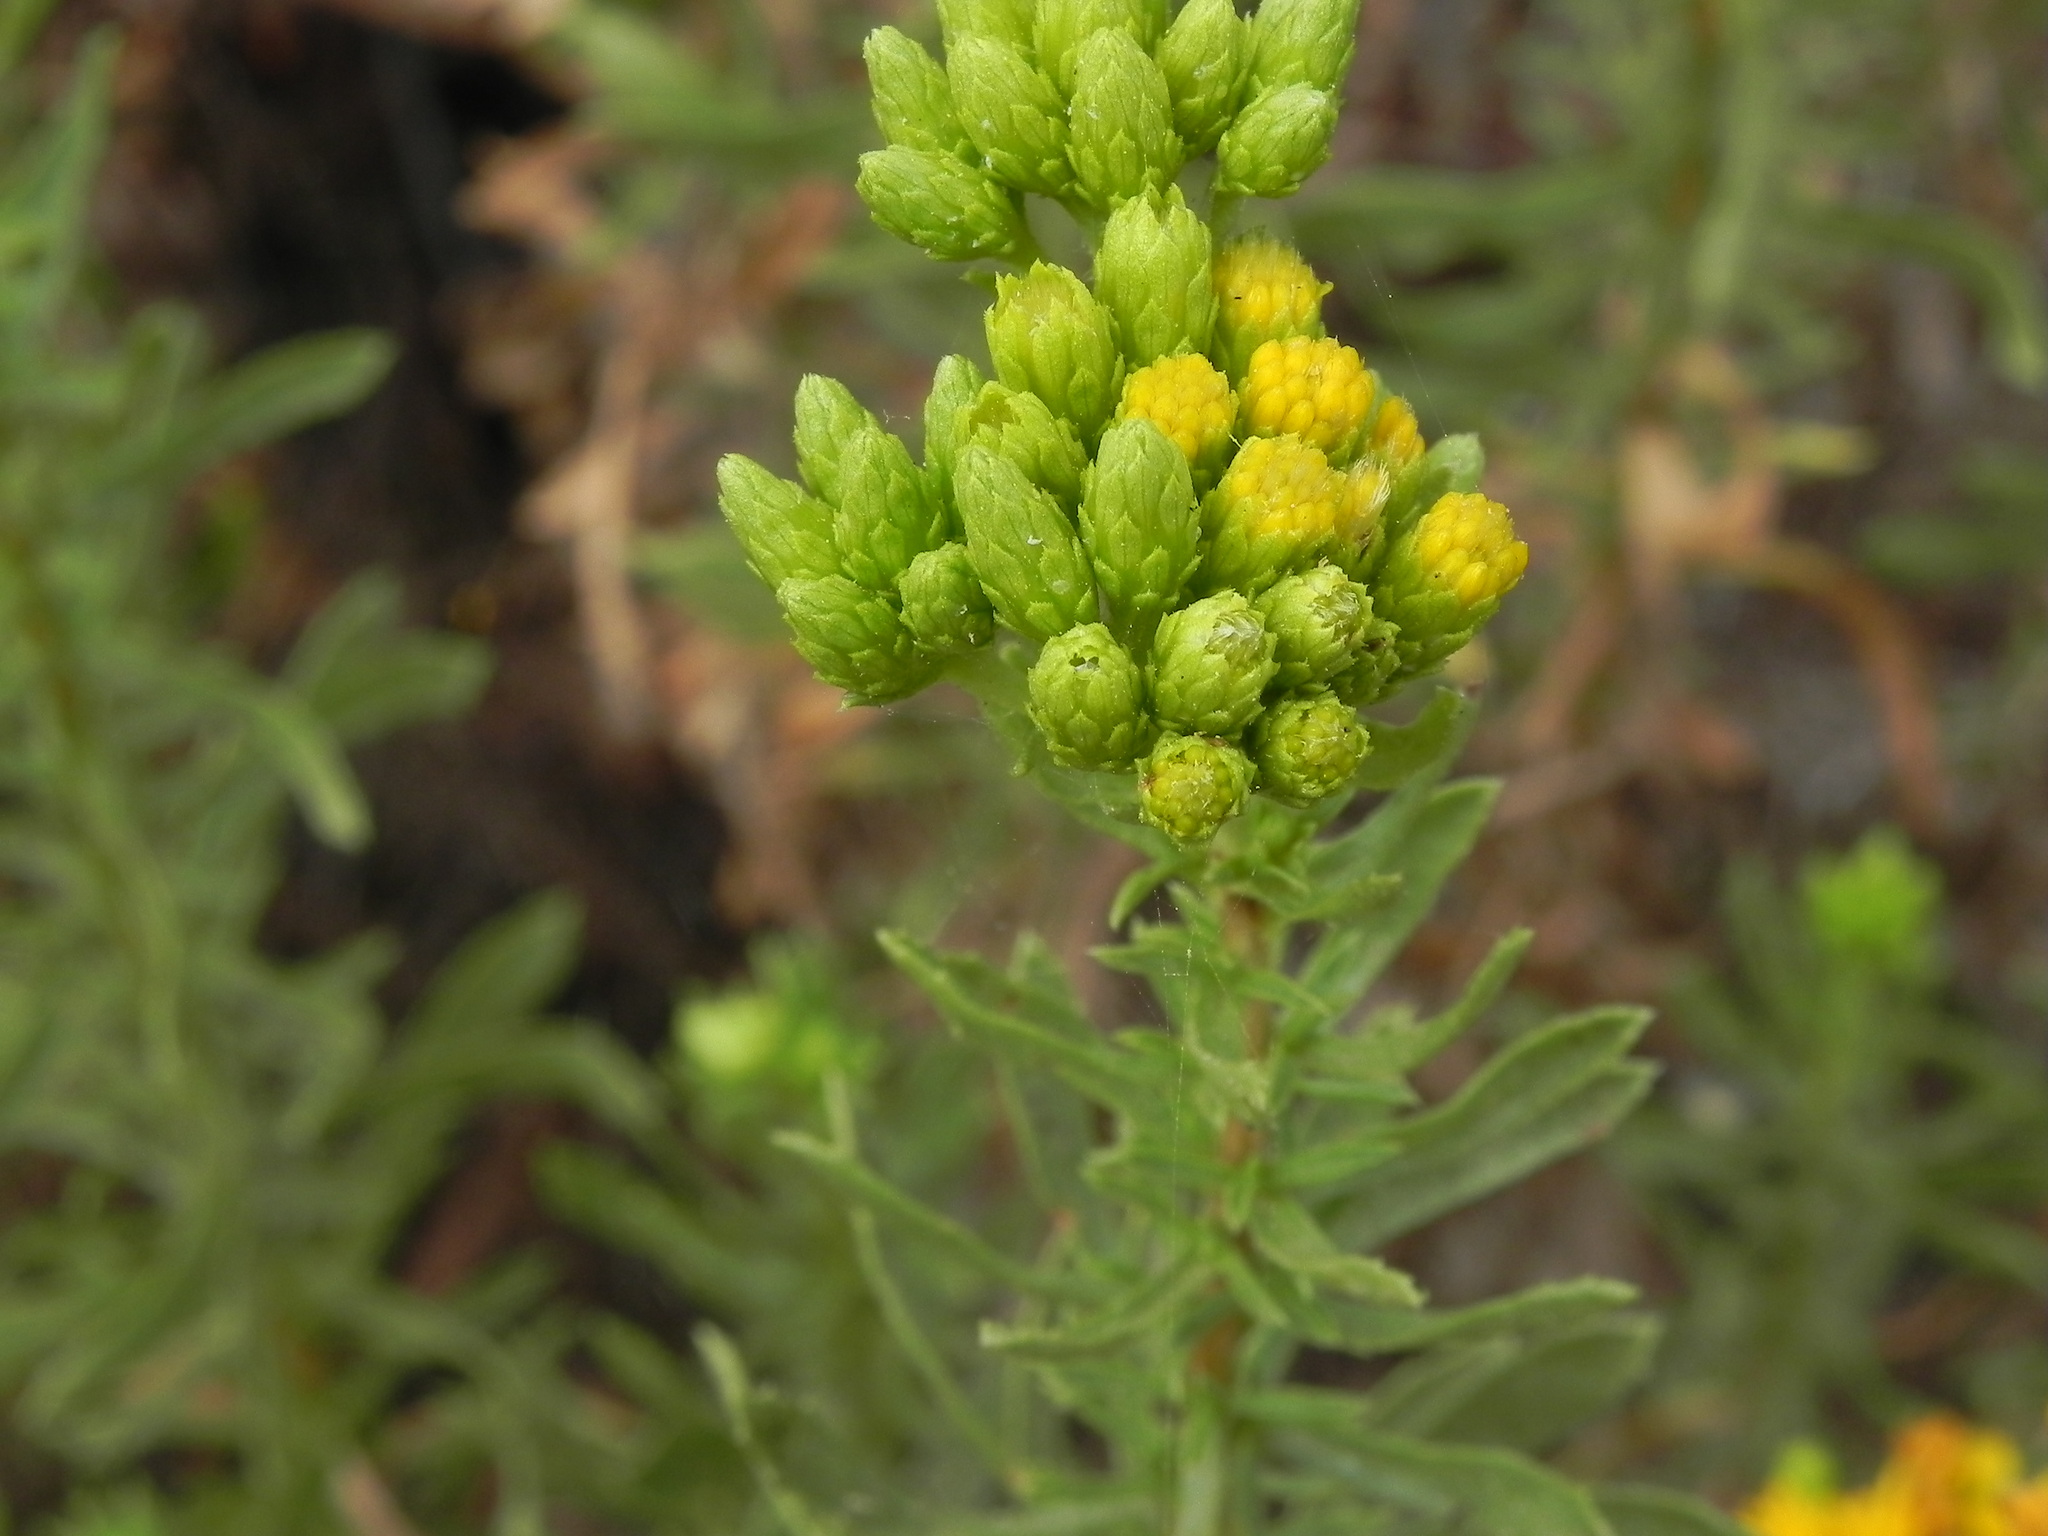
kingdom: Plantae
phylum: Tracheophyta
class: Magnoliopsida
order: Asterales
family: Asteraceae
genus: Isocoma
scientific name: Isocoma menziesii
